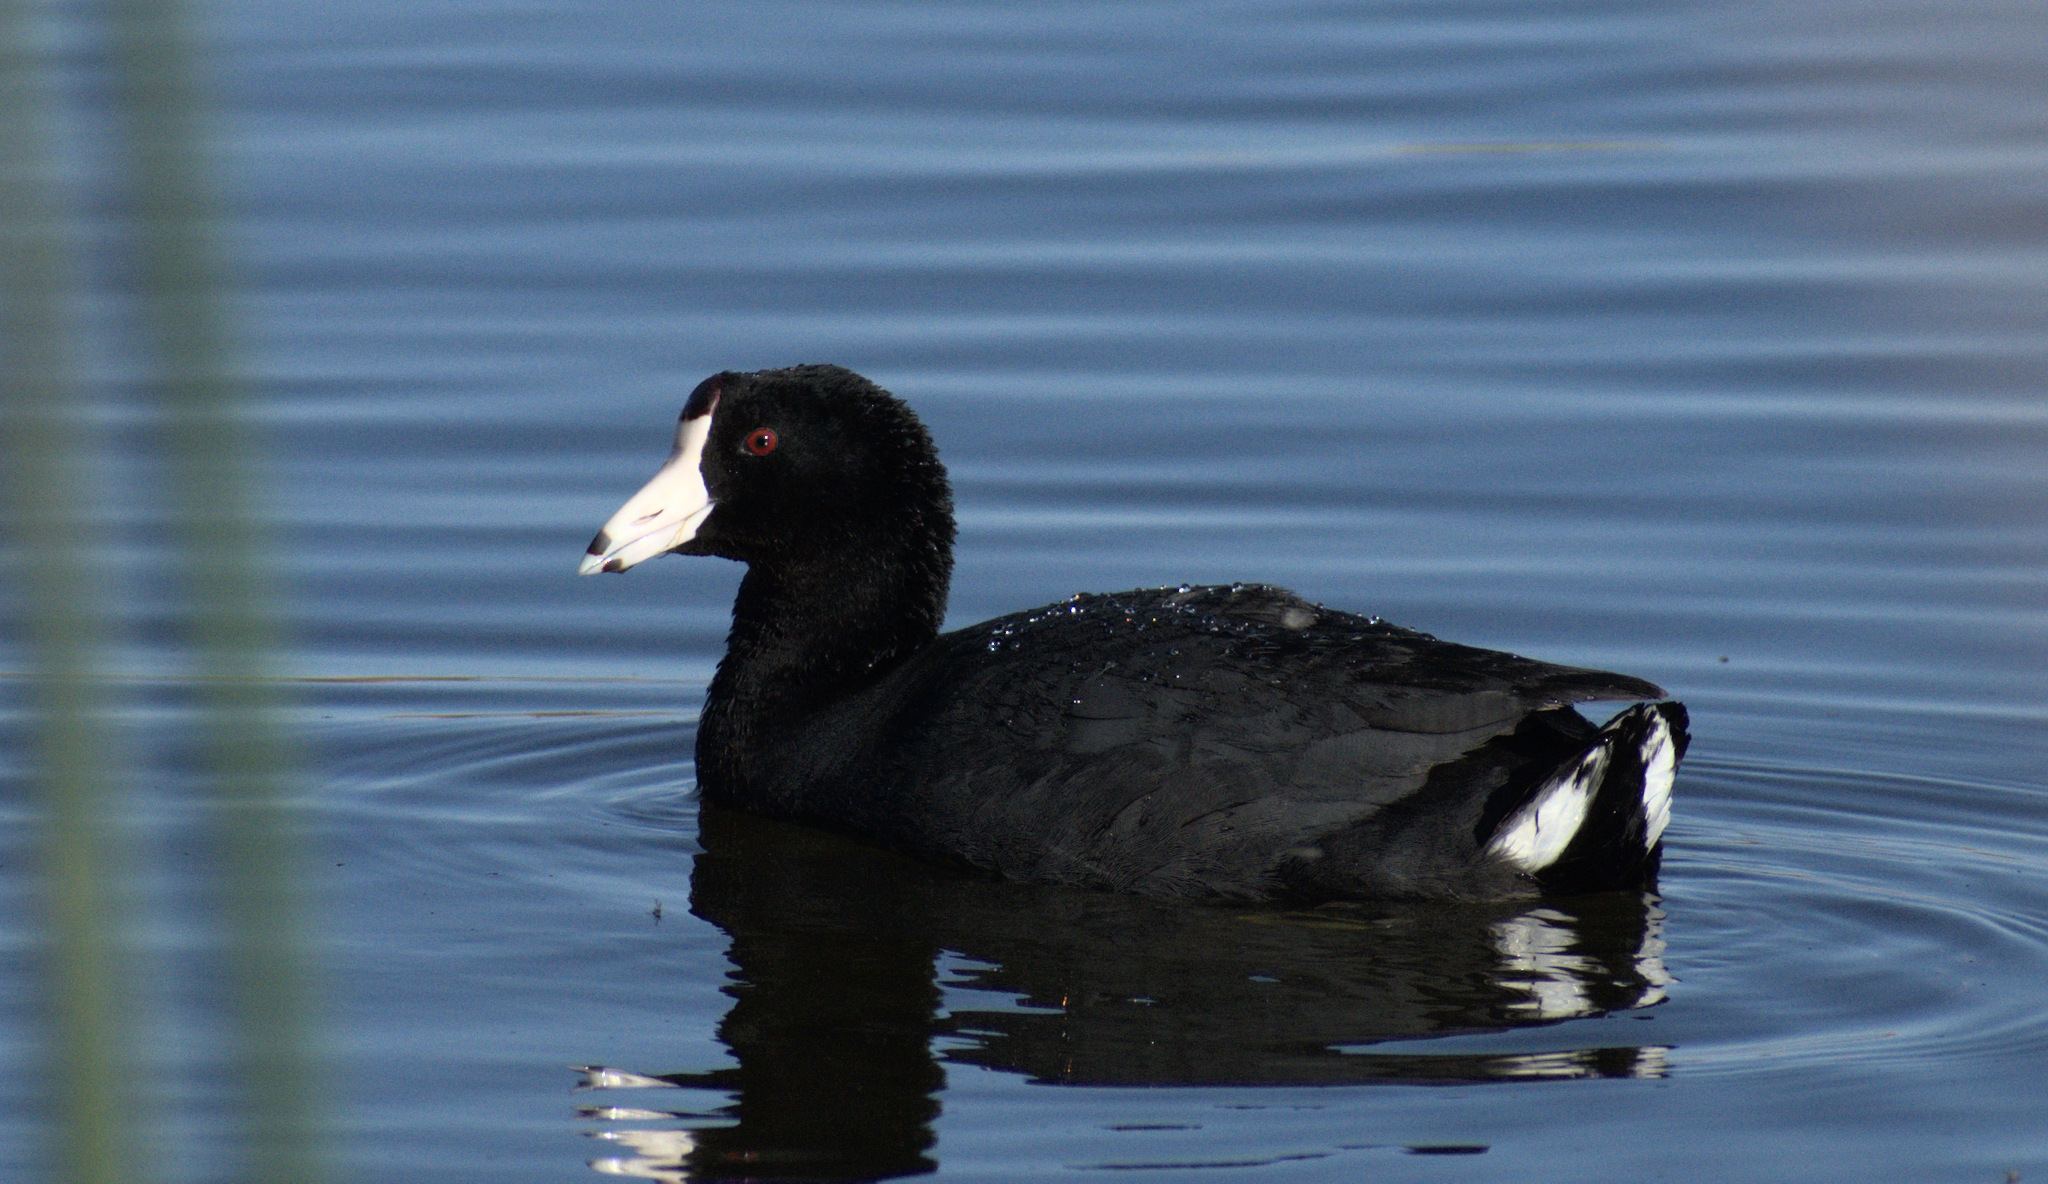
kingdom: Animalia
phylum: Chordata
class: Aves
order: Gruiformes
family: Rallidae
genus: Fulica
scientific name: Fulica americana
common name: American coot
